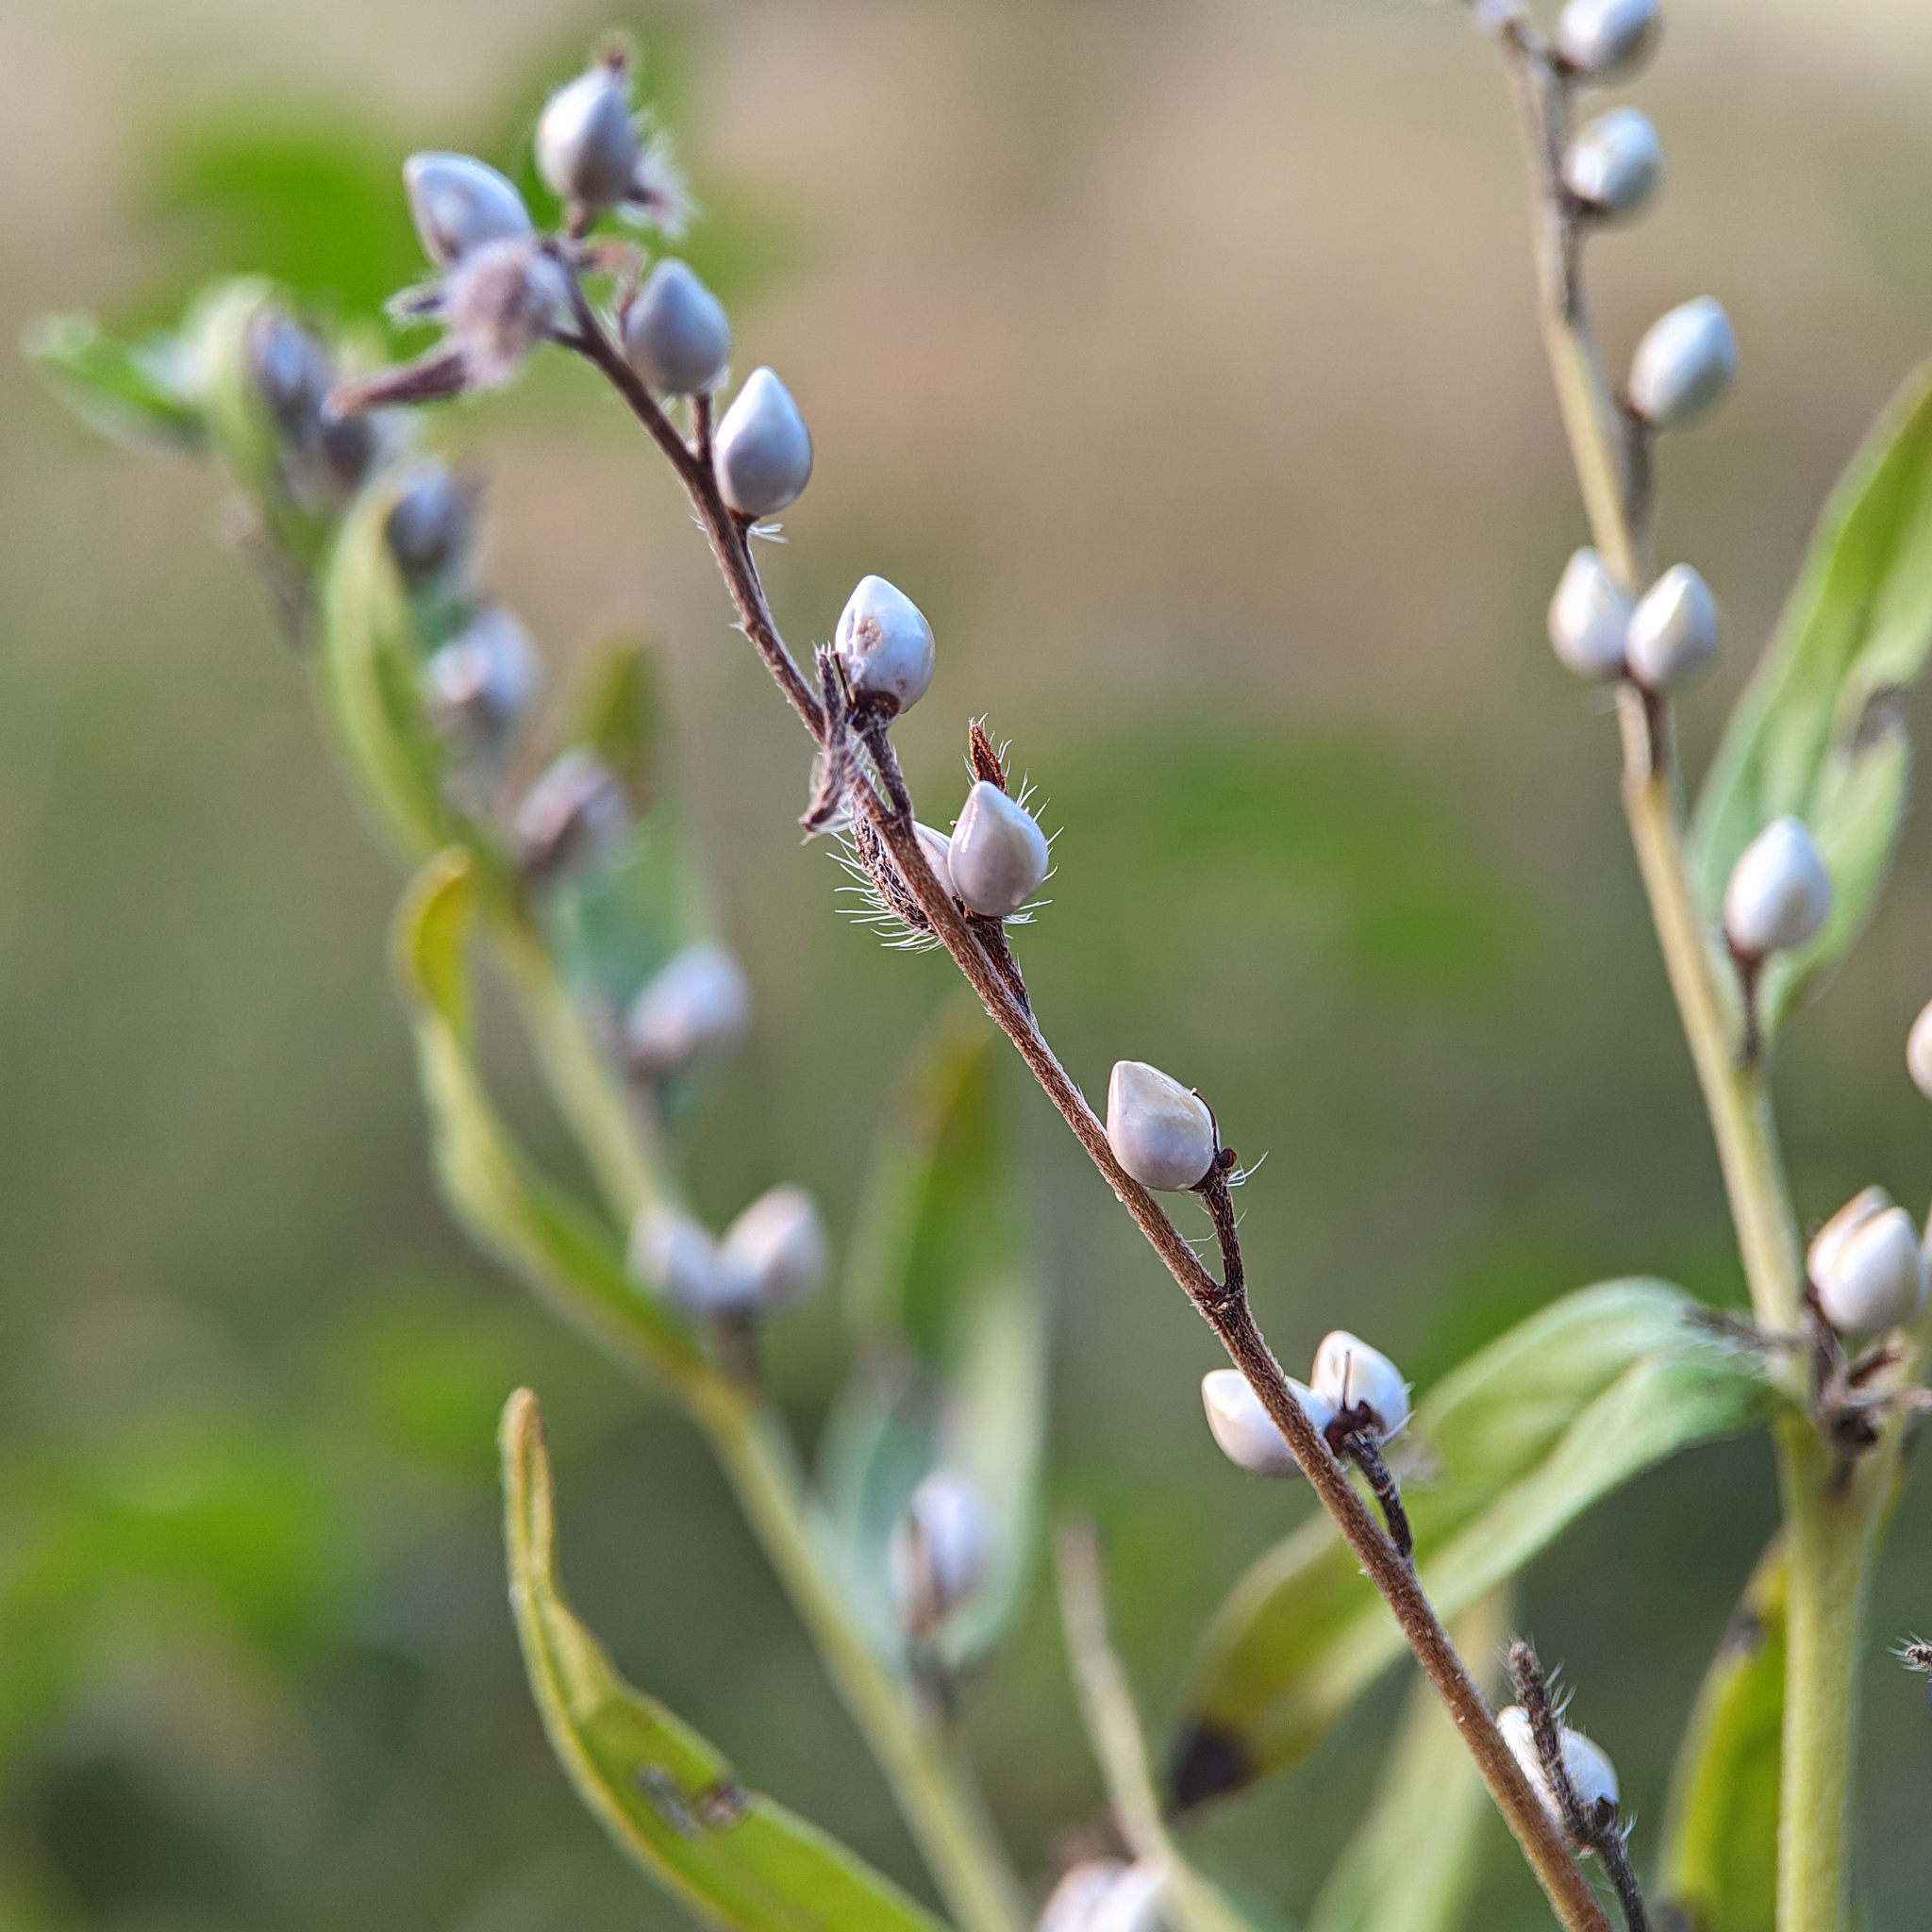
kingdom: Plantae
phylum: Tracheophyta
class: Magnoliopsida
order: Boraginales
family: Boraginaceae
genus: Lithospermum
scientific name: Lithospermum officinale
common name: Common gromwell
